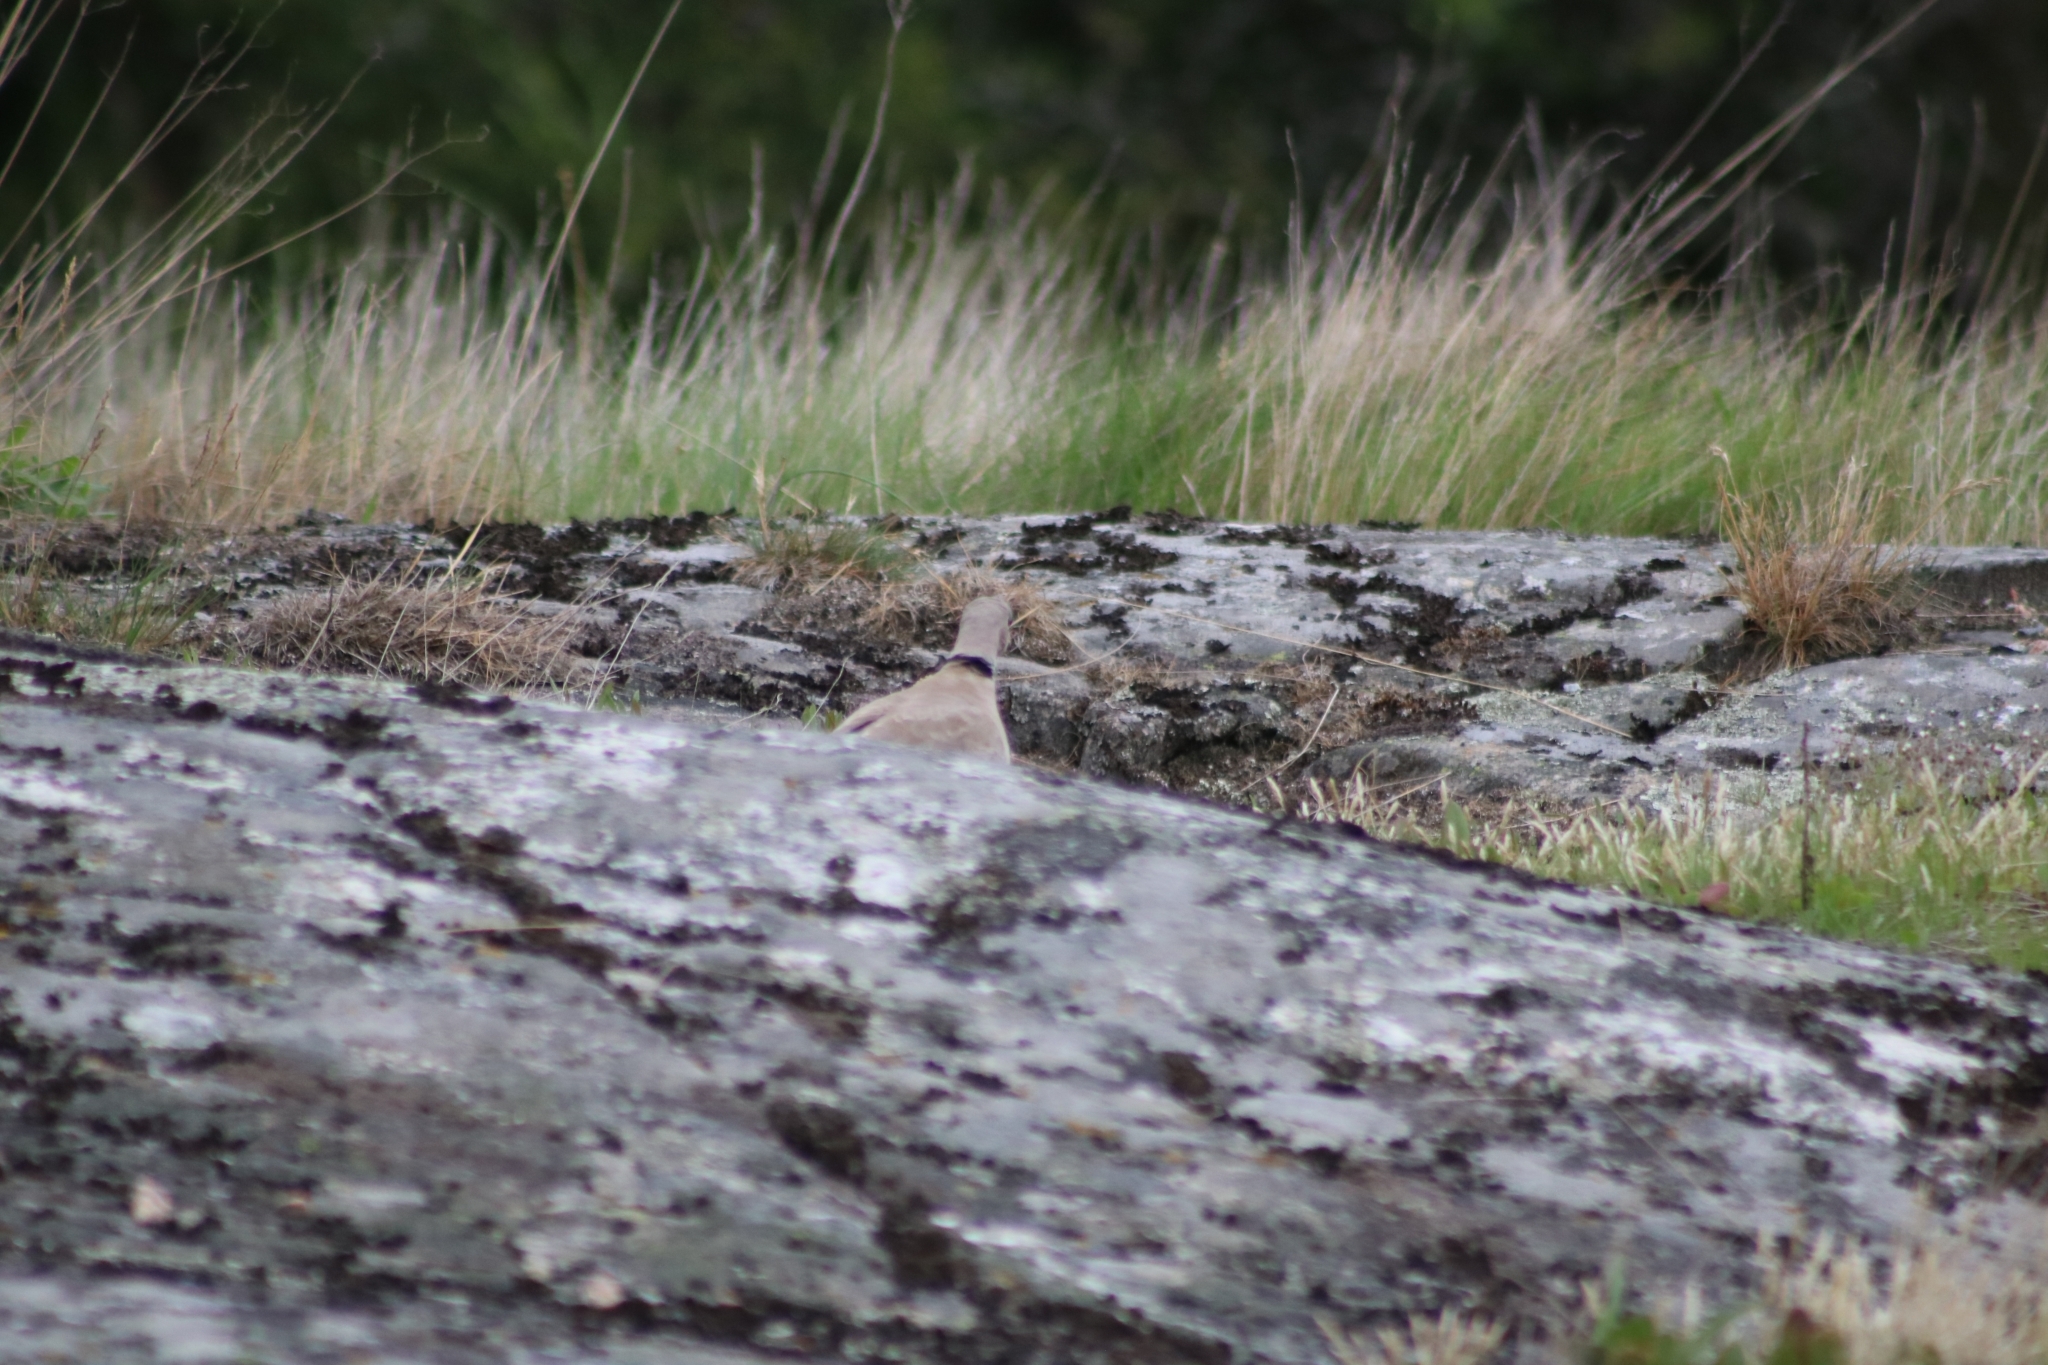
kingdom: Animalia
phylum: Chordata
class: Aves
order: Columbiformes
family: Columbidae
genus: Streptopelia
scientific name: Streptopelia decaocto
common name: Eurasian collared dove
